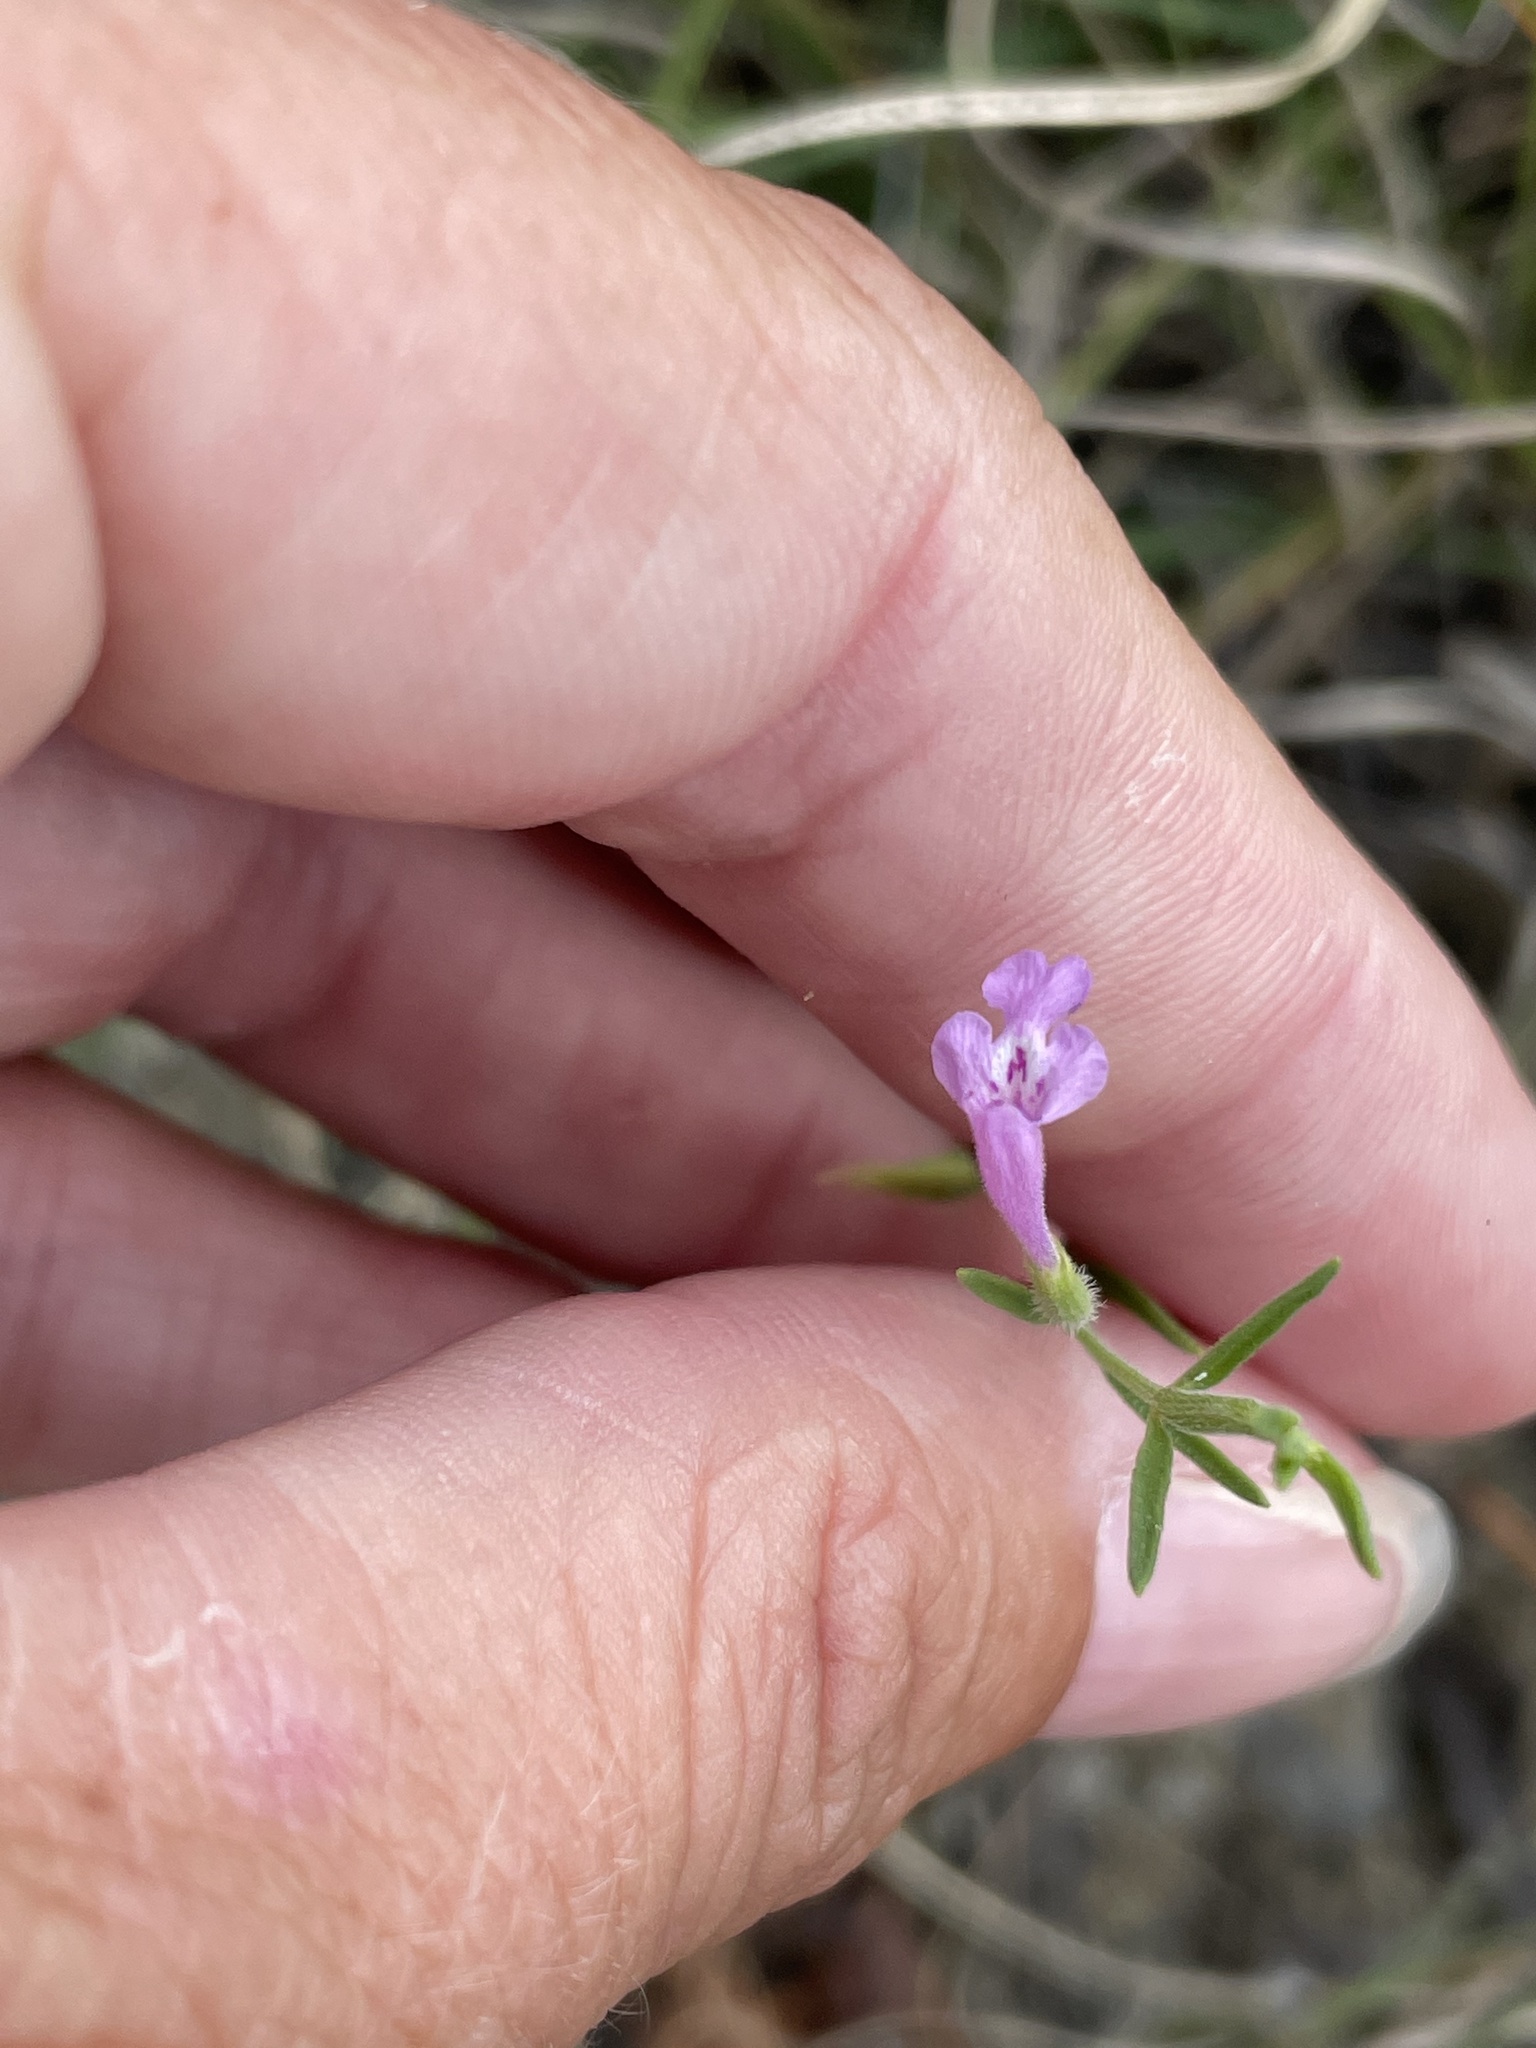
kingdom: Plantae
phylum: Tracheophyta
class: Magnoliopsida
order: Lamiales
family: Lamiaceae
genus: Hedeoma
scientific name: Hedeoma reverchonii
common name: Reverchon's false penny-royal
